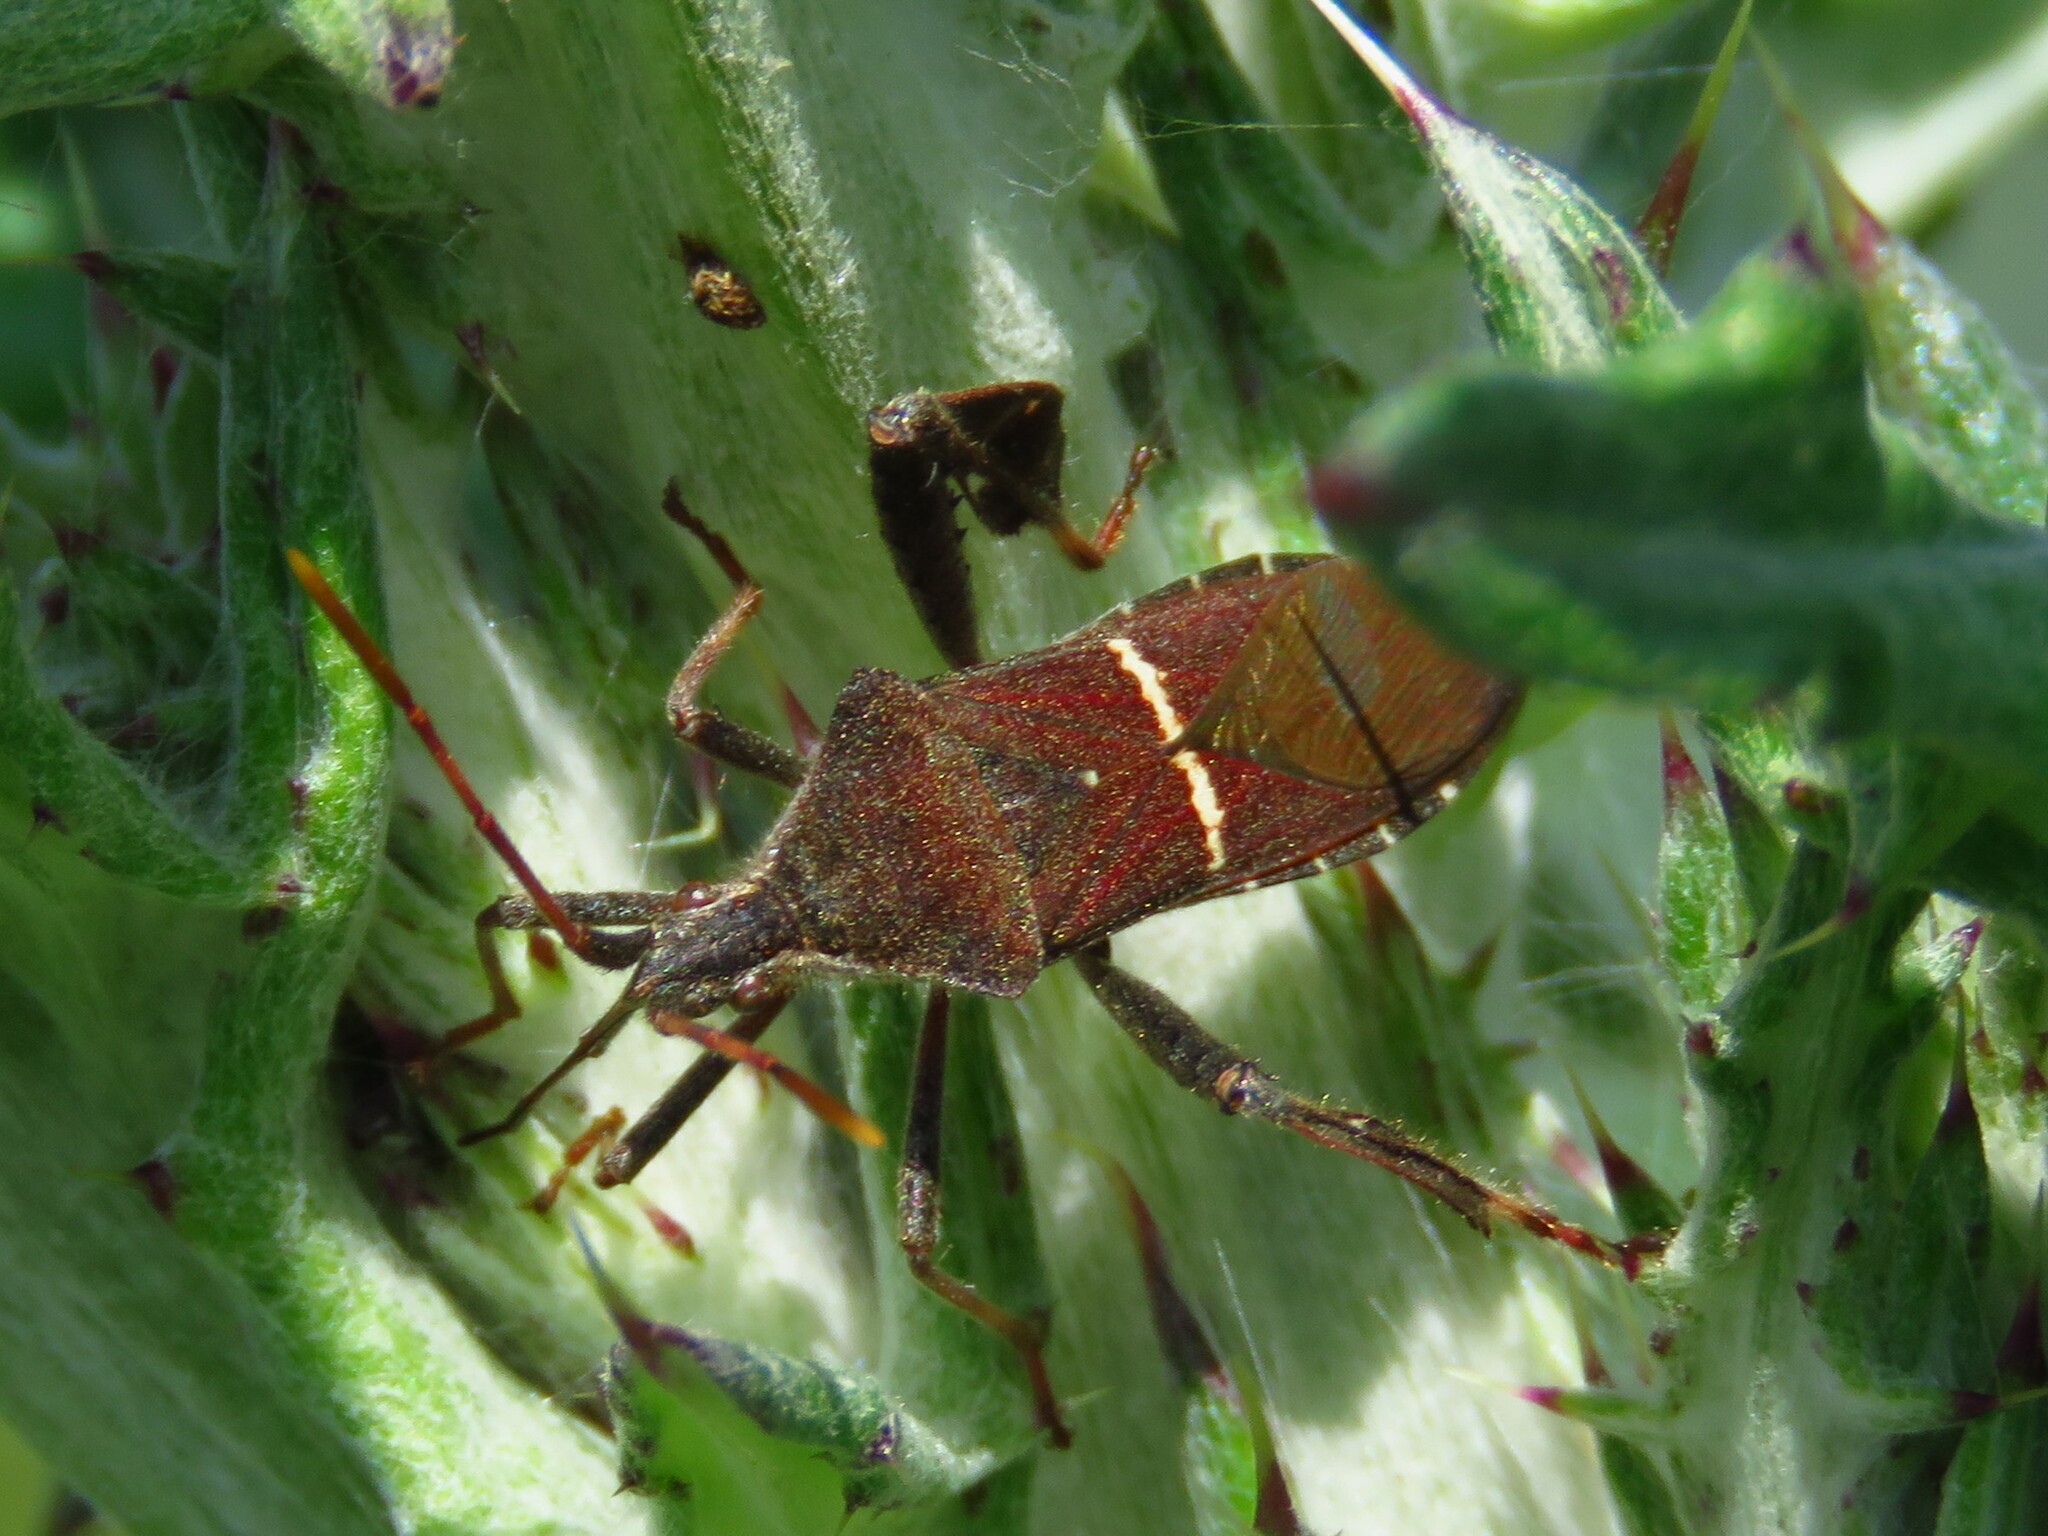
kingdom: Animalia
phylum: Arthropoda
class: Insecta
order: Hemiptera
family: Coreidae
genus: Leptoglossus
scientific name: Leptoglossus phyllopus
